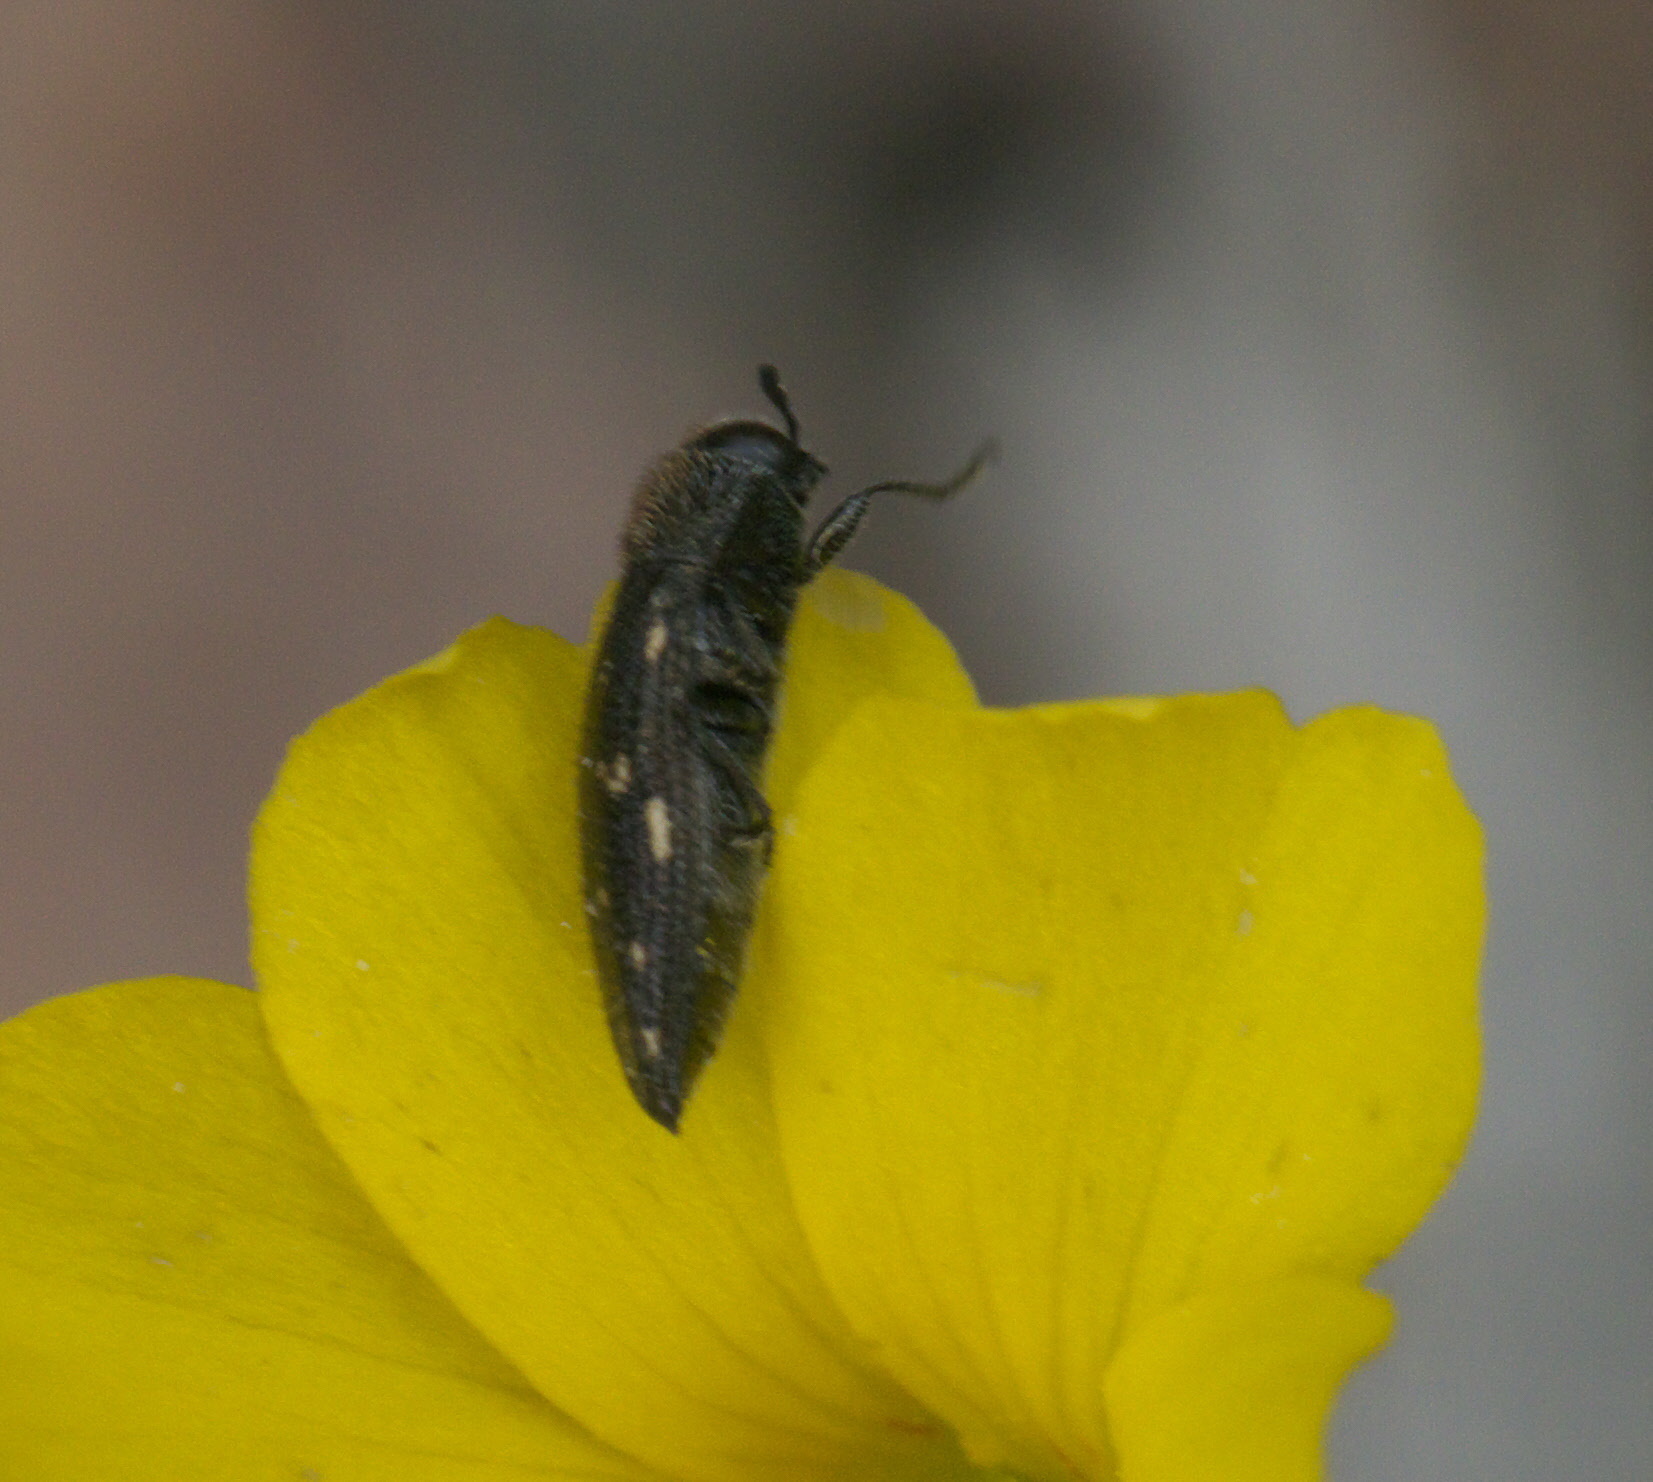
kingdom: Animalia
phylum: Arthropoda
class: Insecta
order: Coleoptera
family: Buprestidae
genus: Acmaeodera
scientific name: Acmaeodera tubulus
